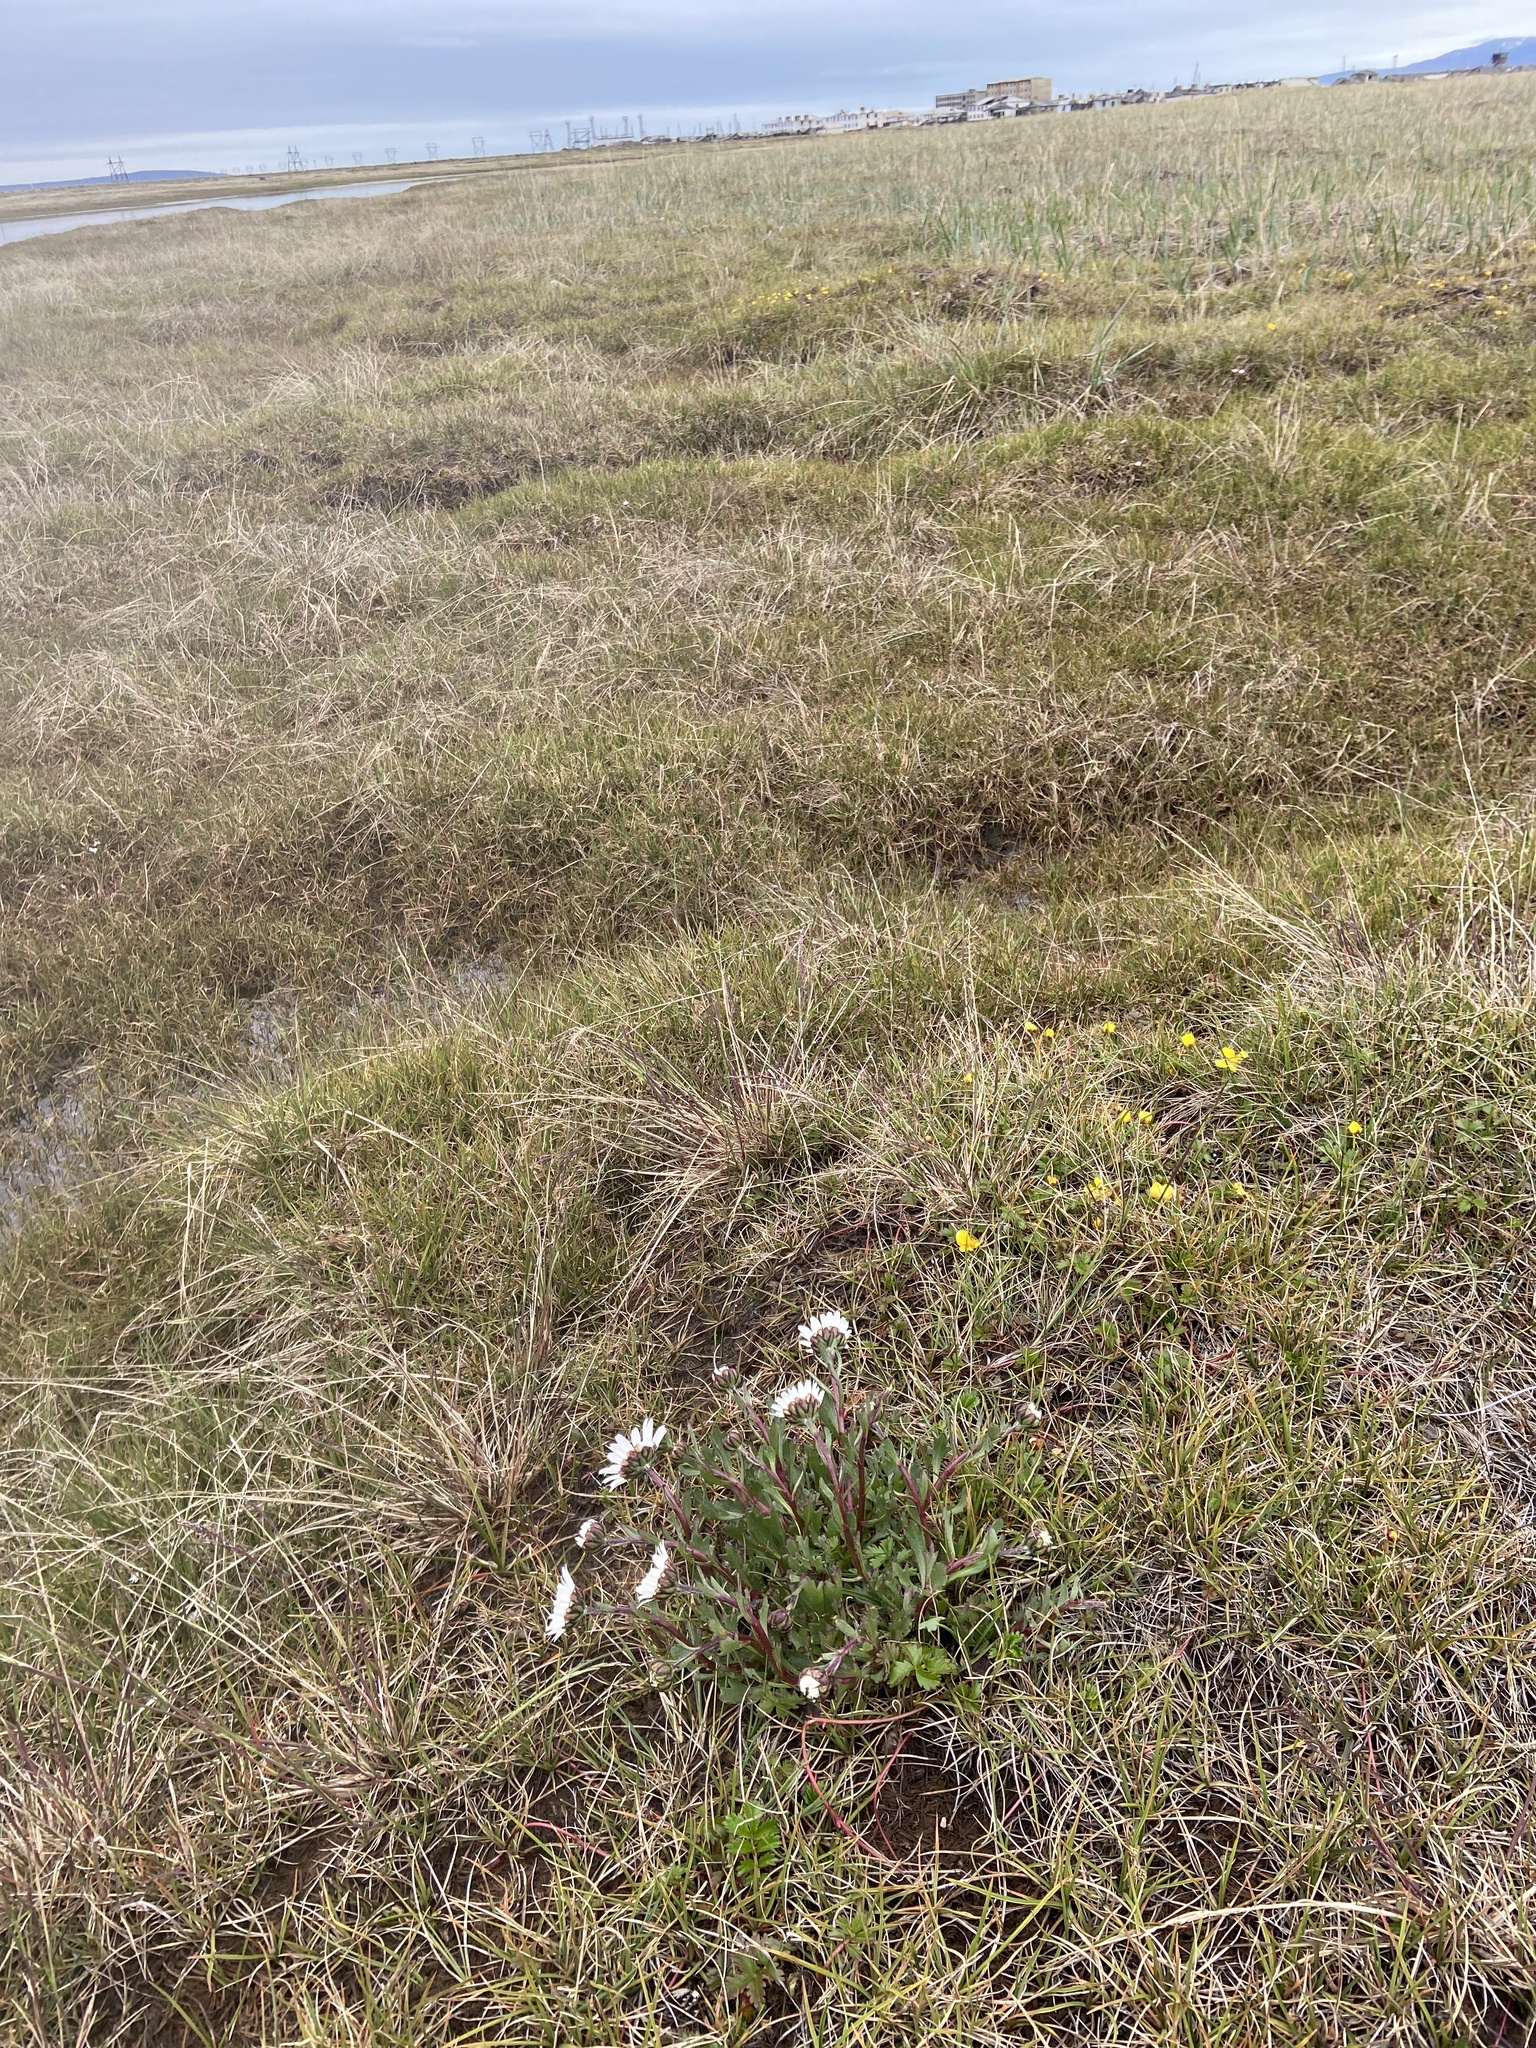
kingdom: Plantae
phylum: Tracheophyta
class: Magnoliopsida
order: Asterales
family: Asteraceae
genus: Arctanthemum
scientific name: Arctanthemum arcticum
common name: Arctic daisy
